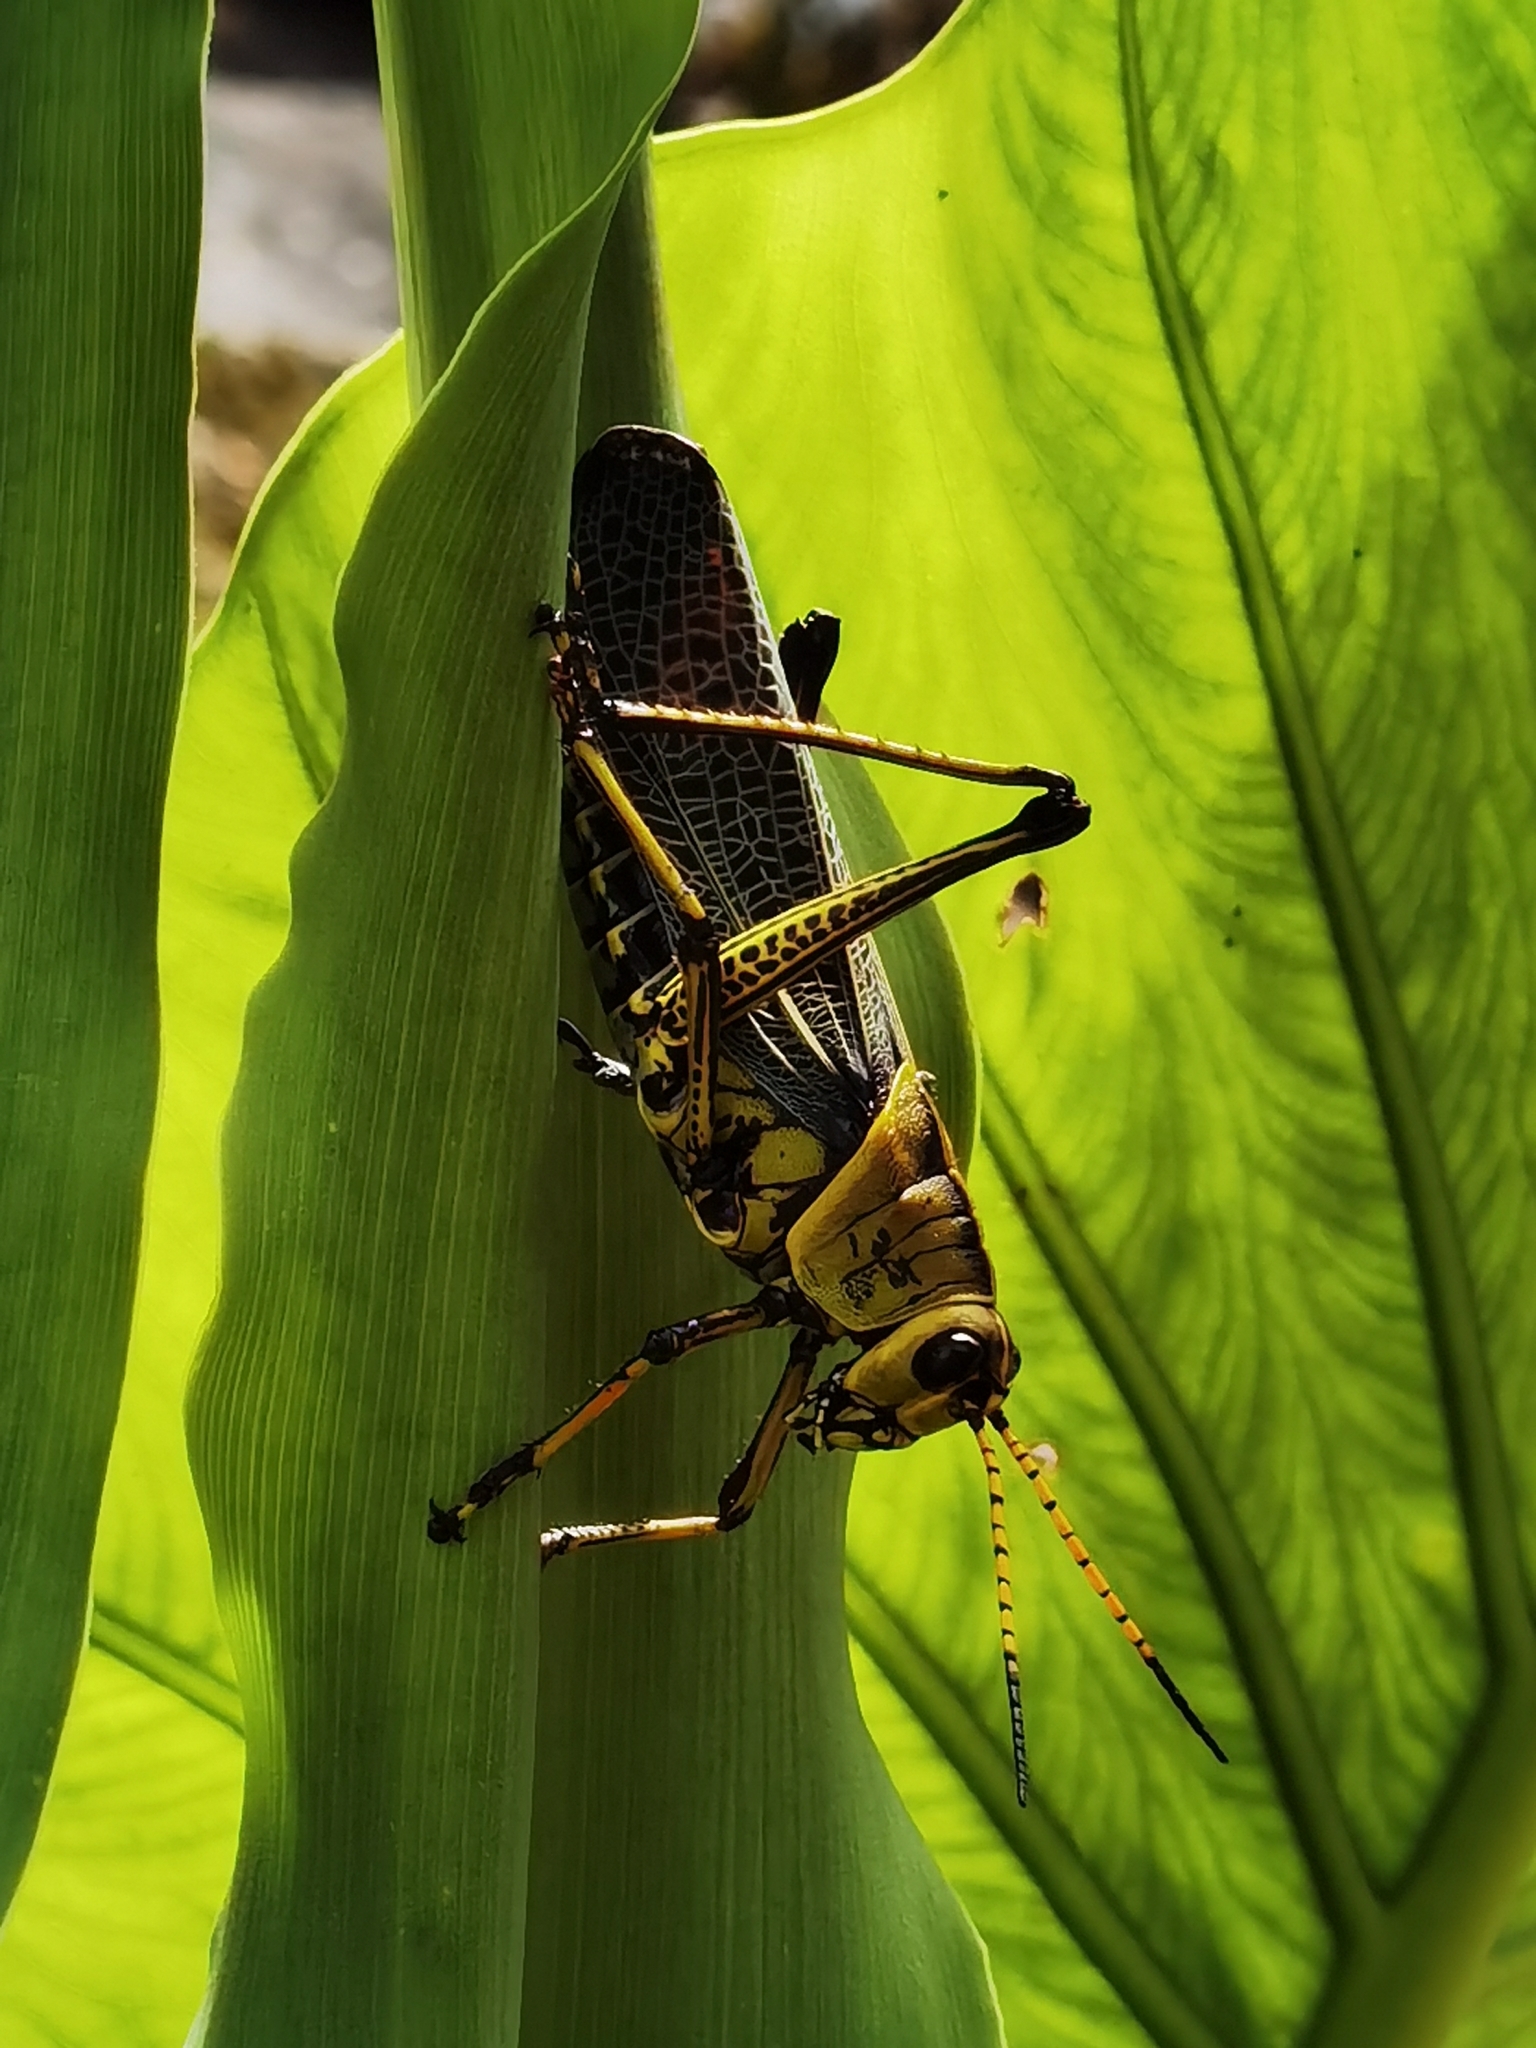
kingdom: Animalia
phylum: Arthropoda
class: Insecta
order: Orthoptera
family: Romaleidae
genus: Romalea
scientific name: Romalea
